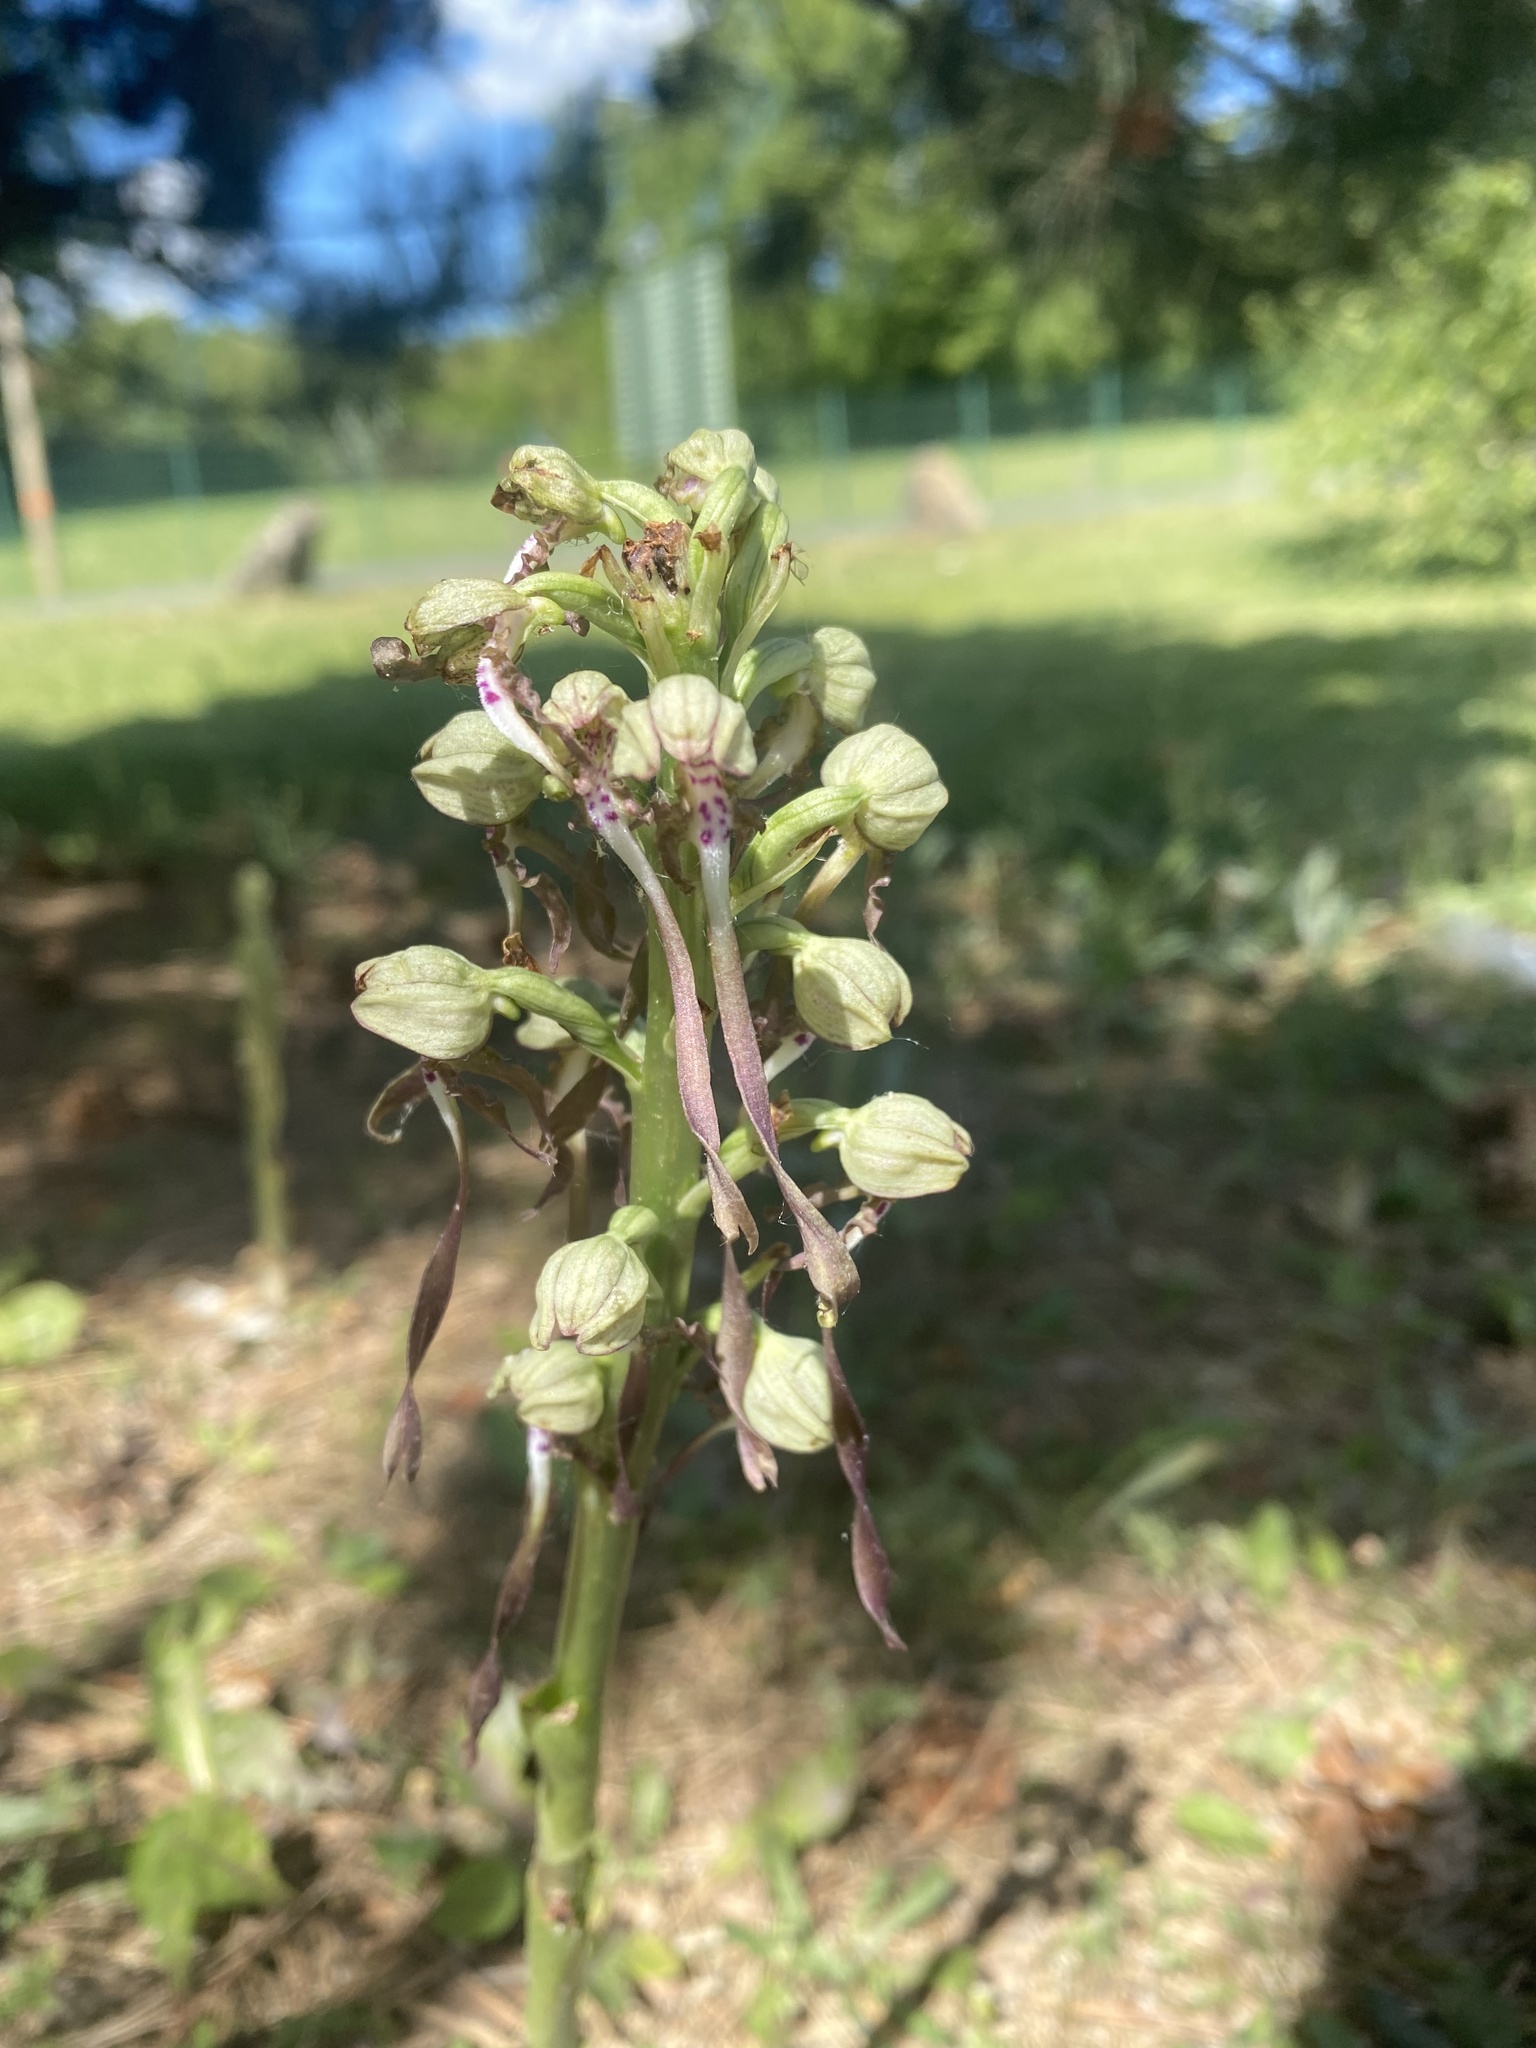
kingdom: Plantae
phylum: Tracheophyta
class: Liliopsida
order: Asparagales
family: Orchidaceae
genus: Himantoglossum
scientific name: Himantoglossum hircinum
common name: Lizard orchid
